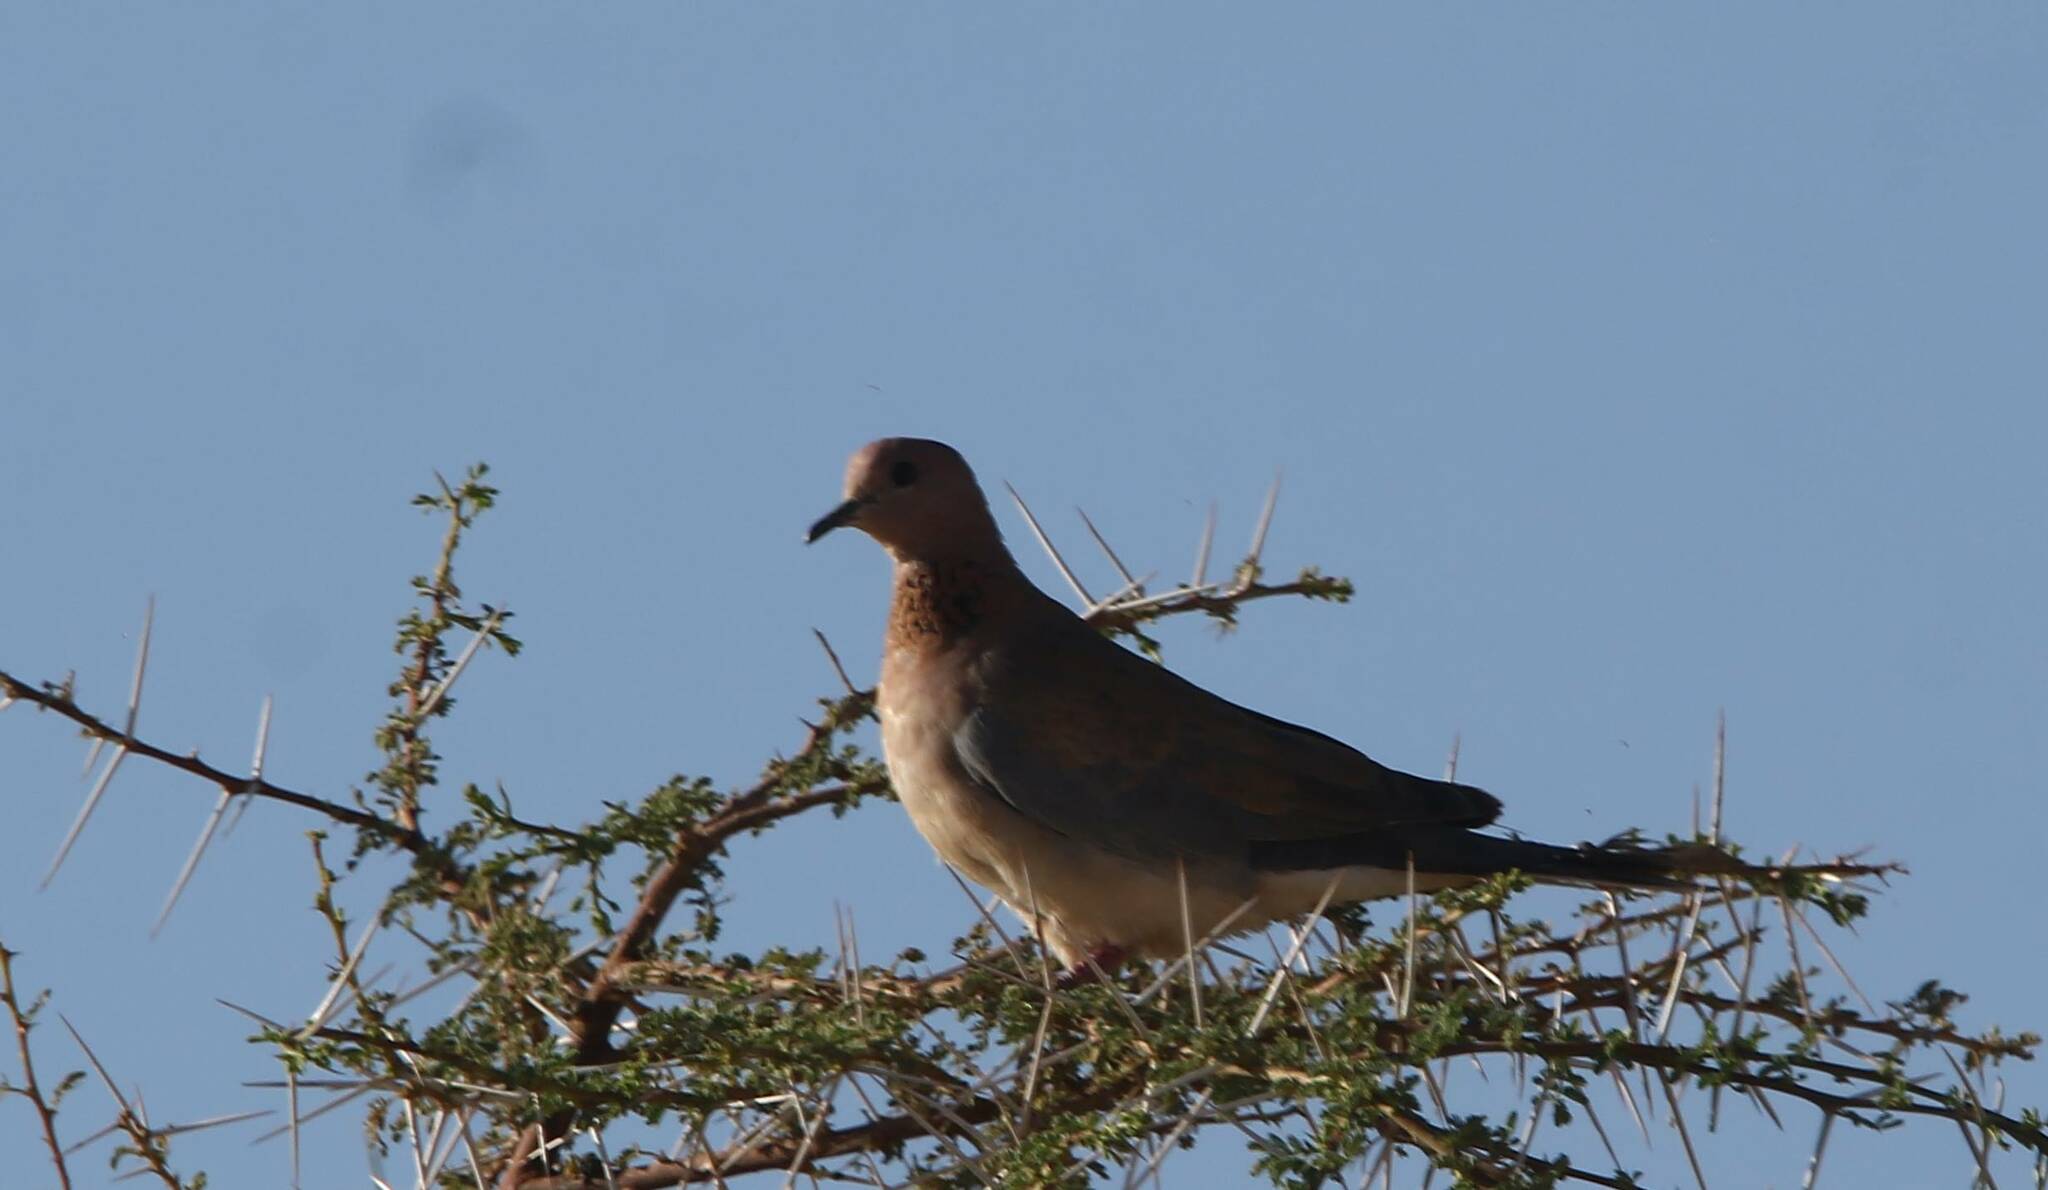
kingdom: Animalia
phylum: Chordata
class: Aves
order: Columbiformes
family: Columbidae
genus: Spilopelia
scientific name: Spilopelia senegalensis
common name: Laughing dove
